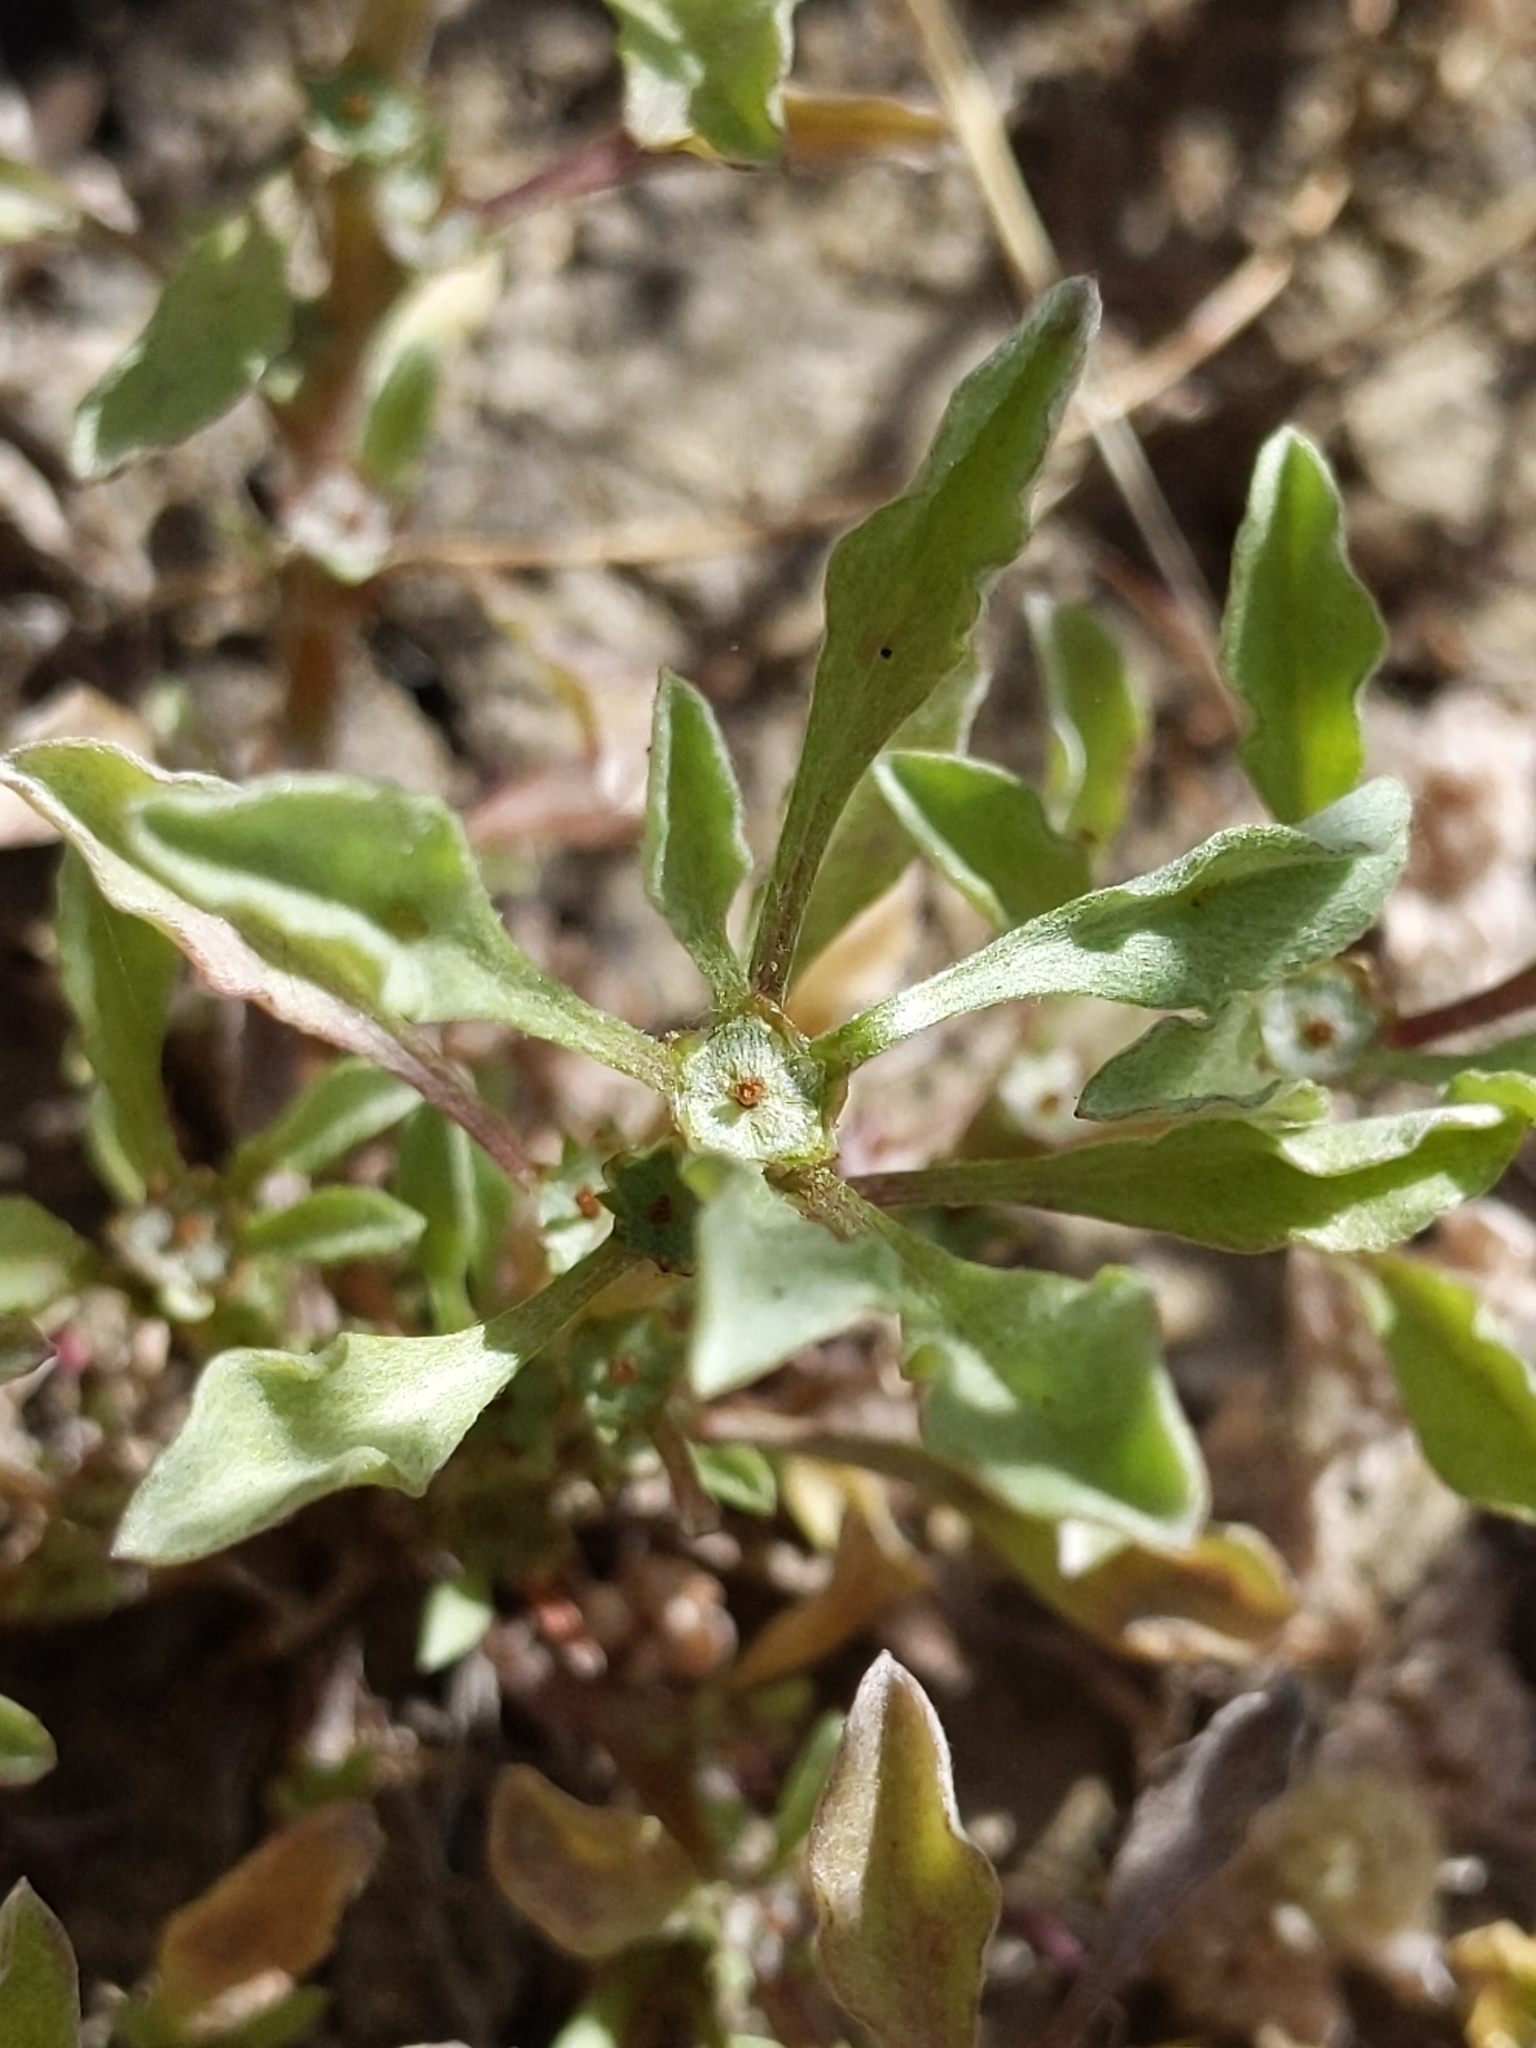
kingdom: Plantae
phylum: Tracheophyta
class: Magnoliopsida
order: Asterales
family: Asteraceae
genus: Hesperevax
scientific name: Hesperevax sparsiflora
